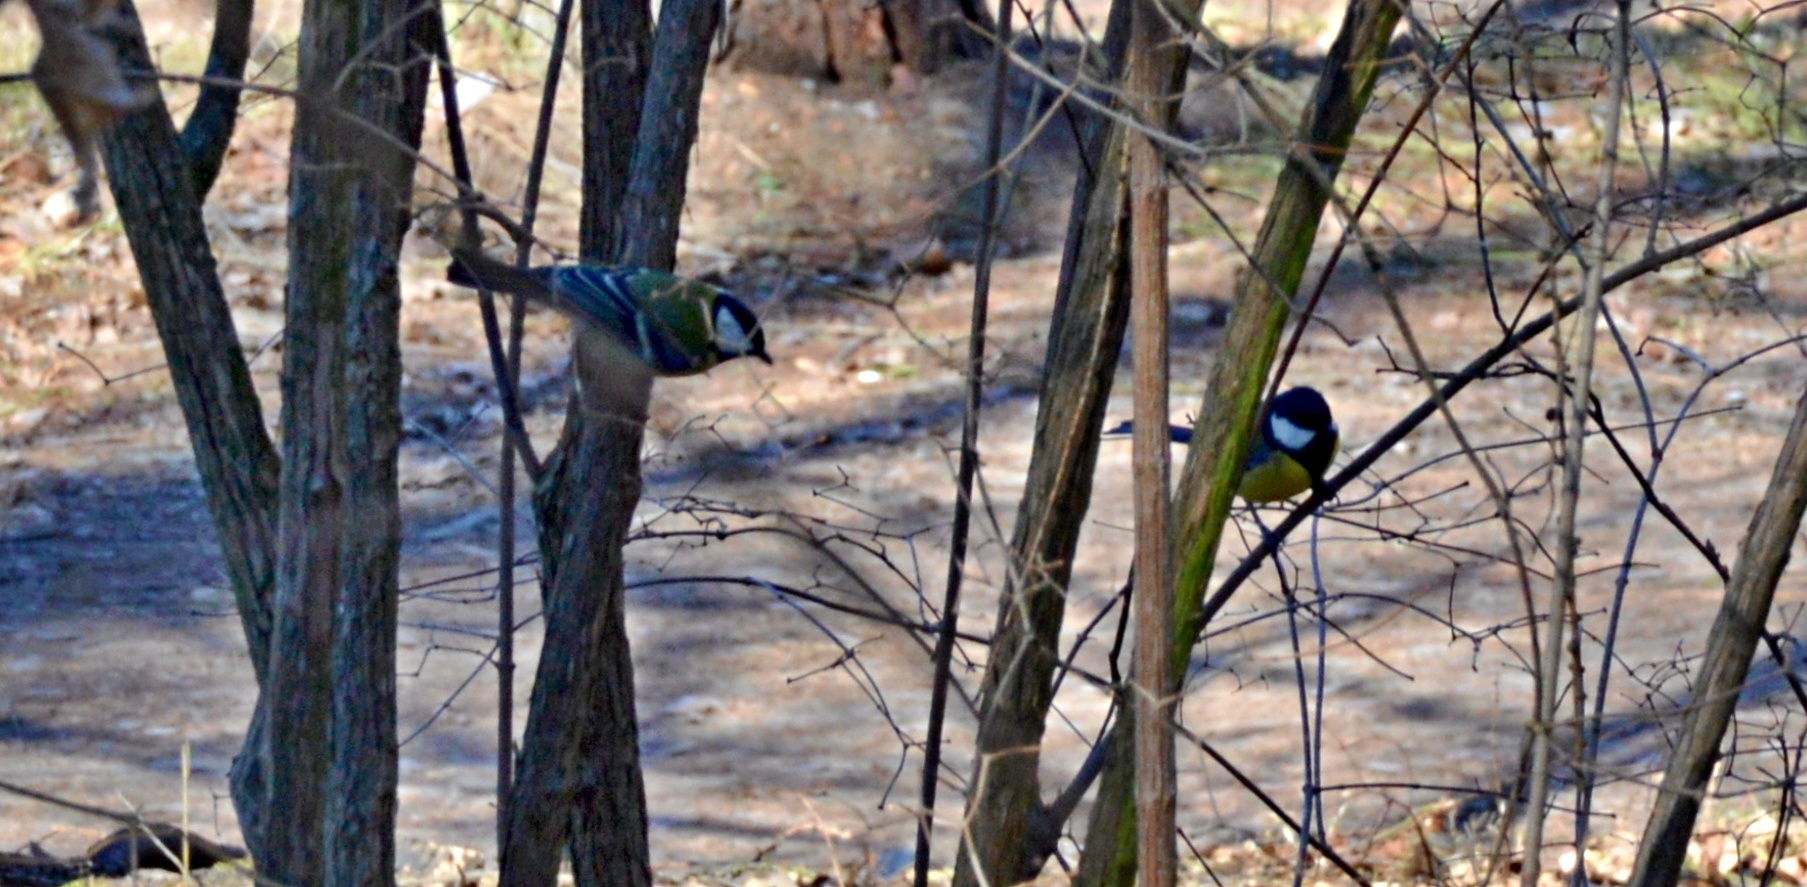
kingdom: Animalia
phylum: Chordata
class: Aves
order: Passeriformes
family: Paridae
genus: Parus
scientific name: Parus major
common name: Great tit
